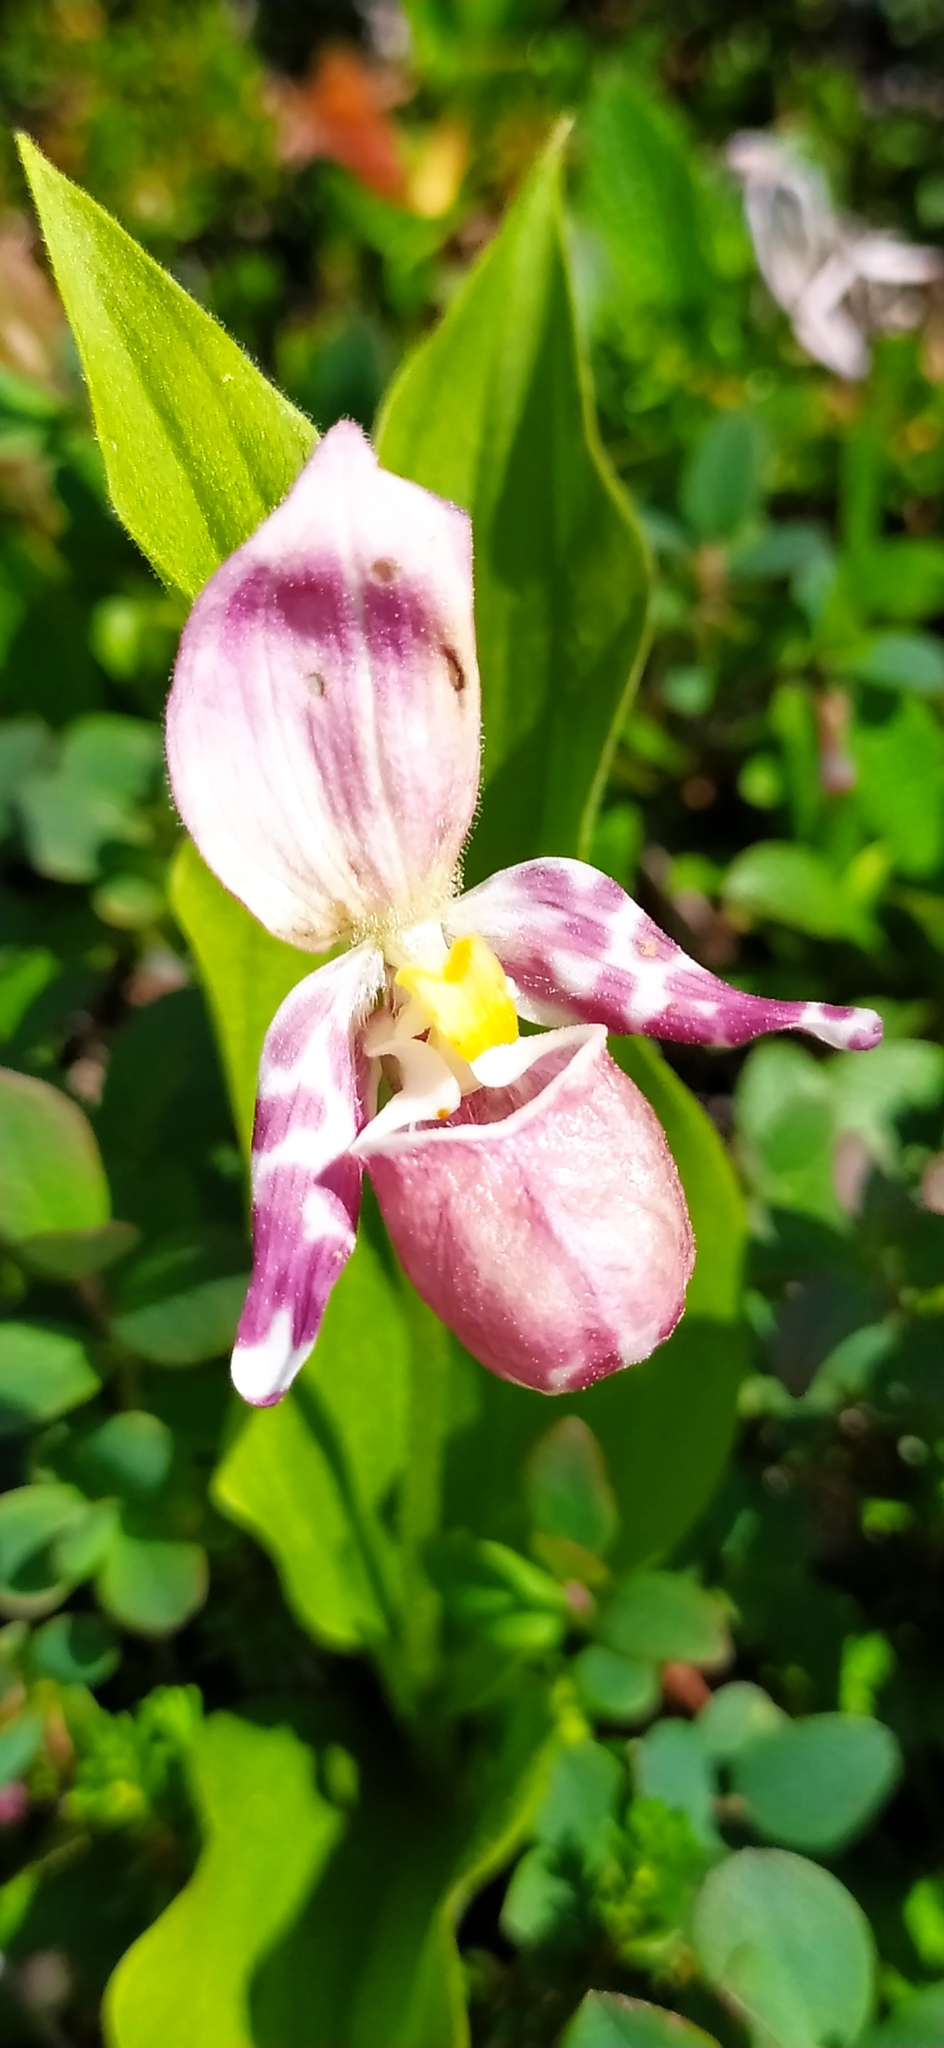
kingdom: Plantae
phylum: Tracheophyta
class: Liliopsida
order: Asparagales
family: Orchidaceae
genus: Cypripedium
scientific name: Cypripedium guttatum
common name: Pink lady slipper
